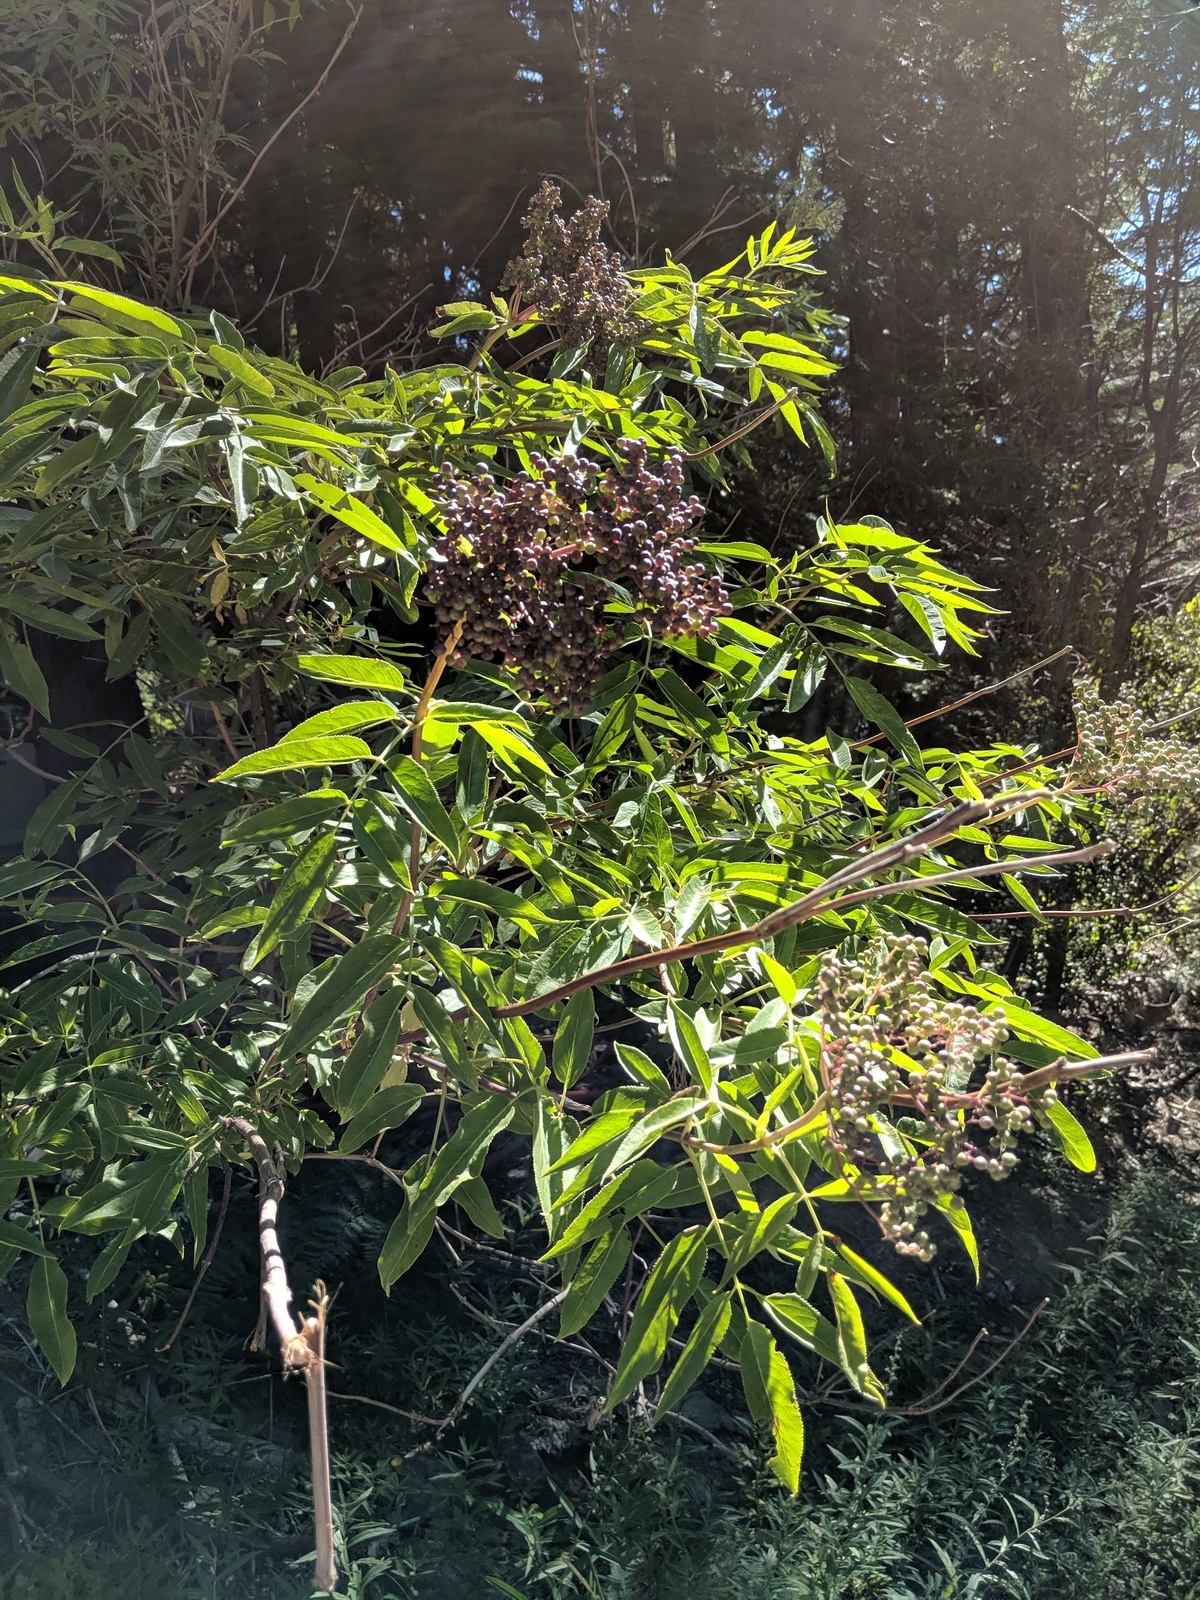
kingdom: Plantae
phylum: Tracheophyta
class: Magnoliopsida
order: Dipsacales
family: Viburnaceae
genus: Sambucus
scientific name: Sambucus cerulea
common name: Blue elder
